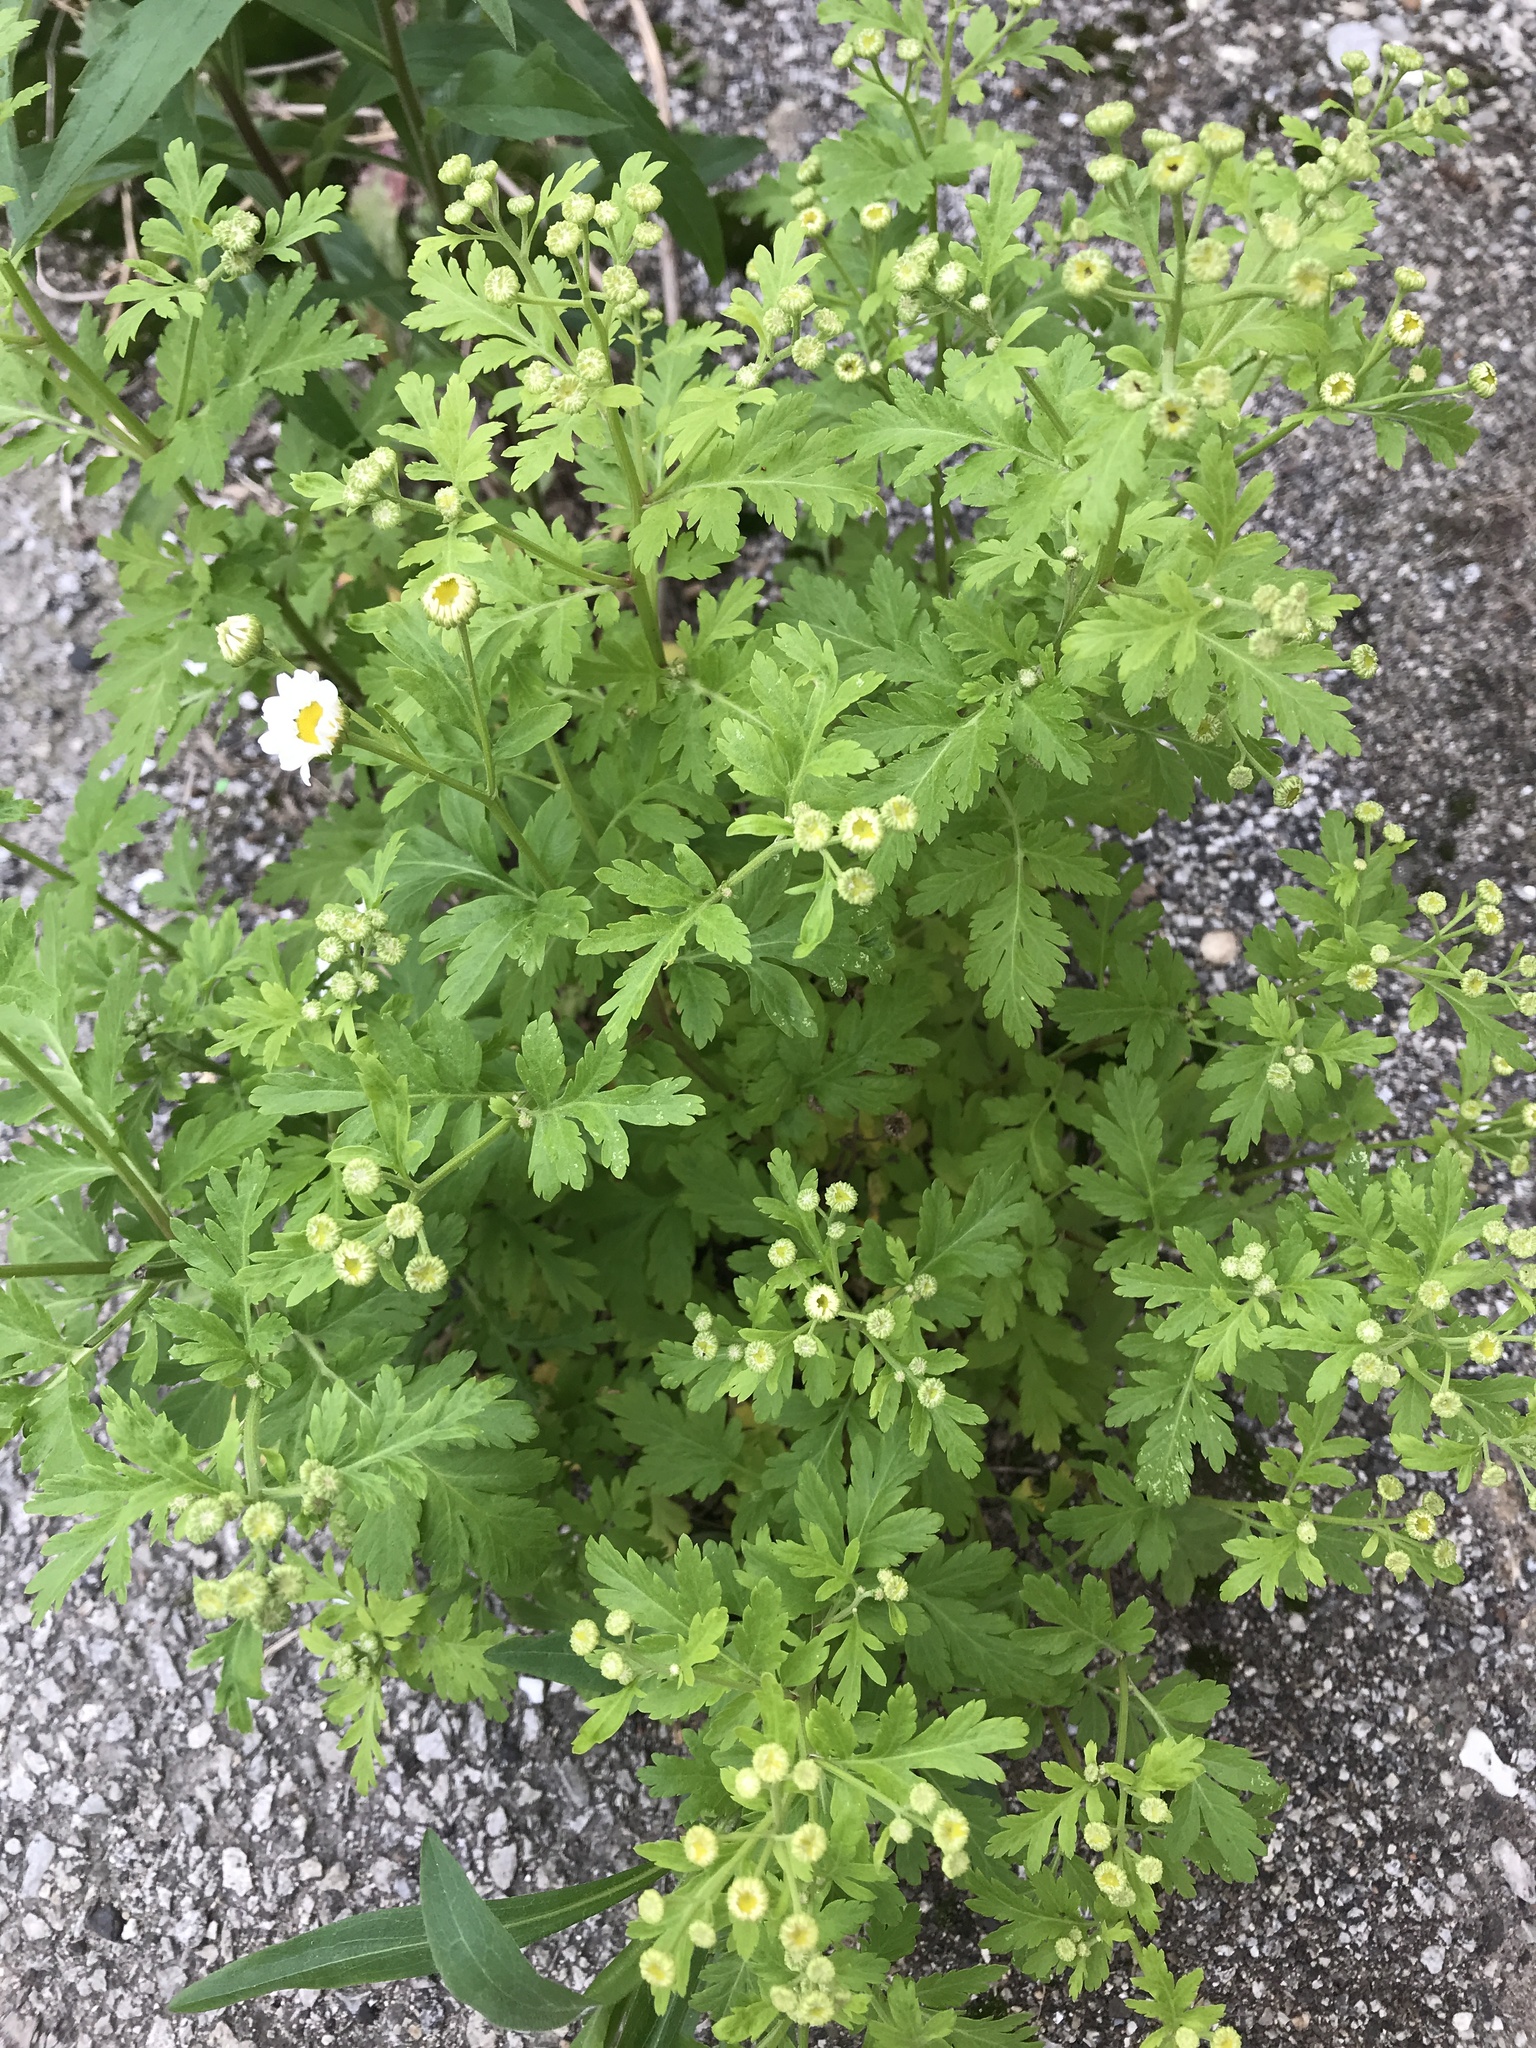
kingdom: Plantae
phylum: Tracheophyta
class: Magnoliopsida
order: Asterales
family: Asteraceae
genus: Tanacetum
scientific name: Tanacetum parthenium
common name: Feverfew
